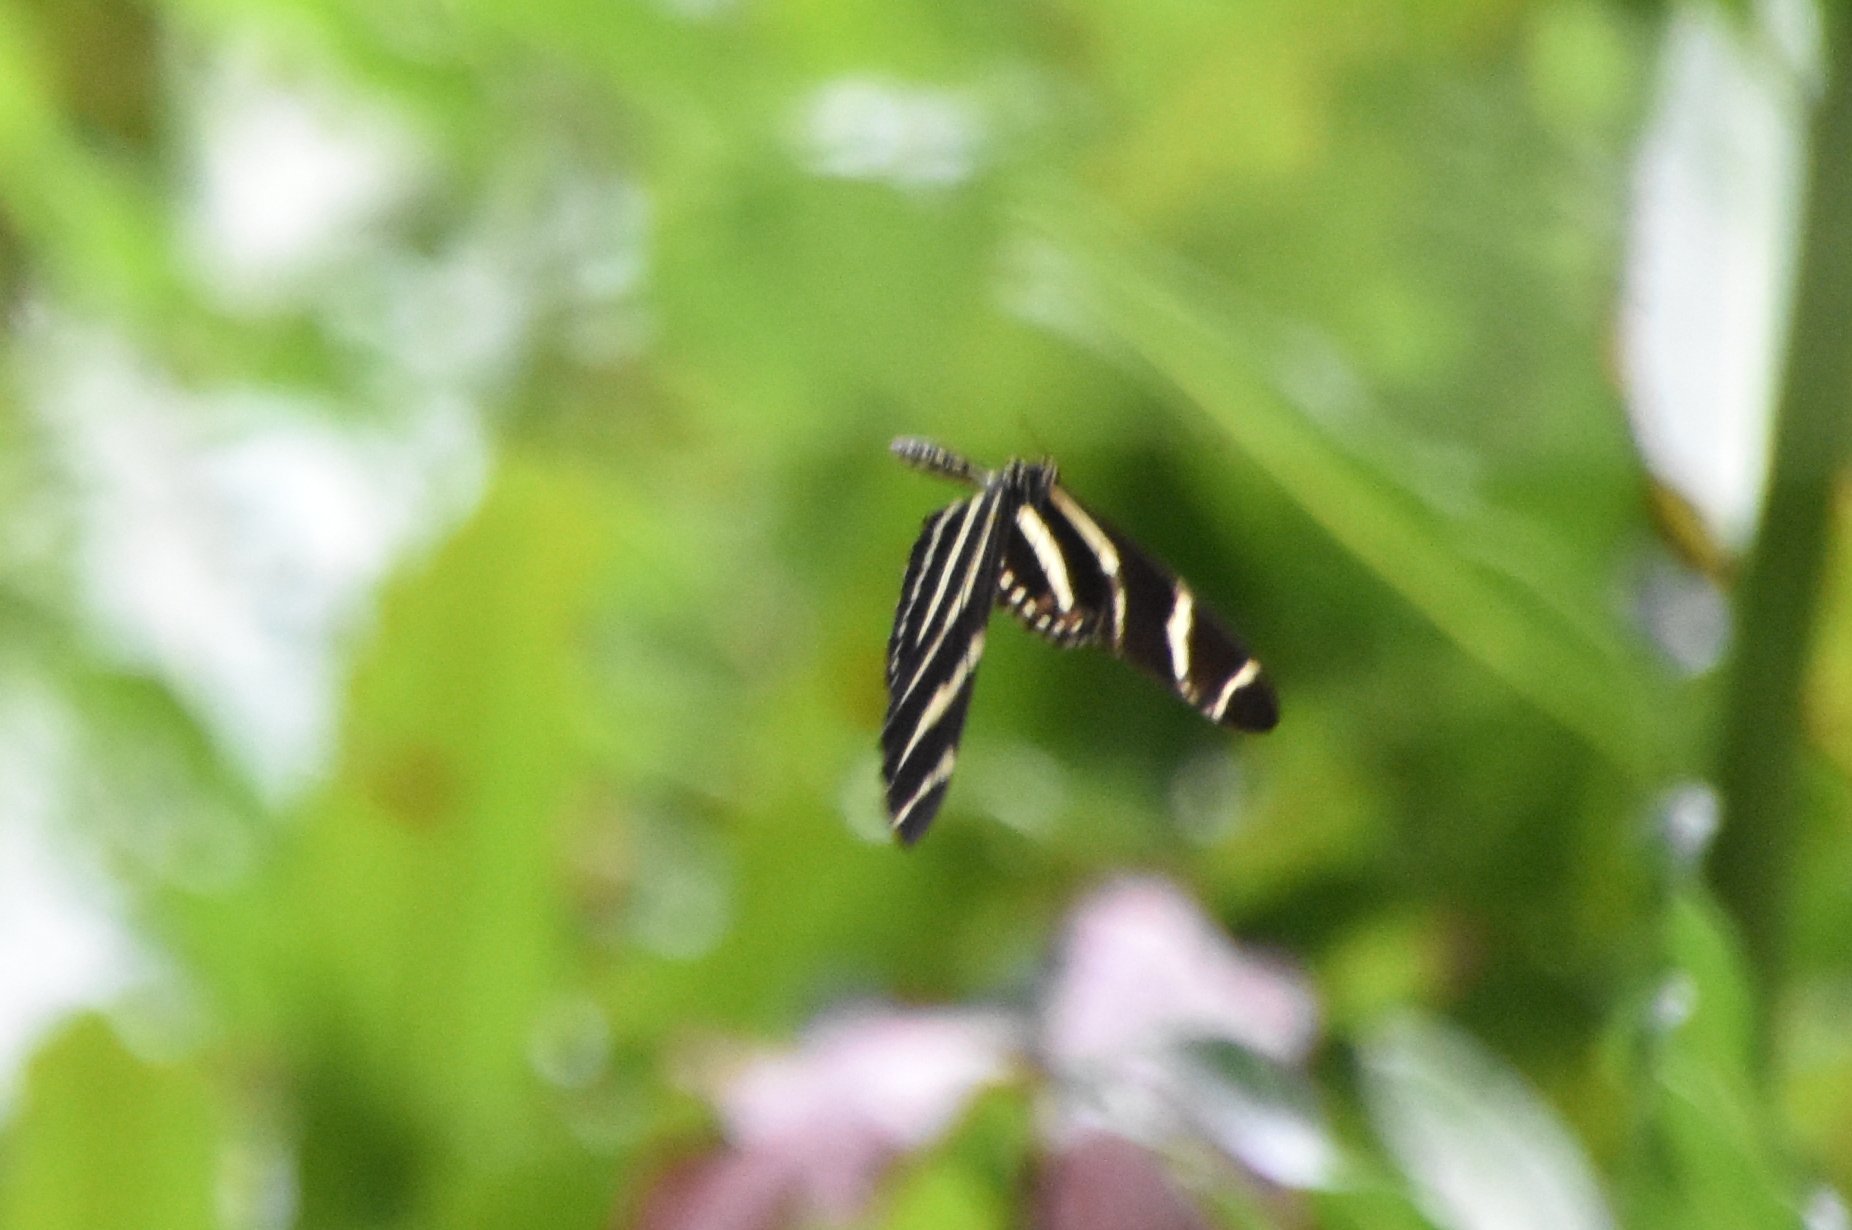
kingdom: Animalia
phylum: Arthropoda
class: Insecta
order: Lepidoptera
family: Nymphalidae
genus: Heliconius
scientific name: Heliconius charithonia
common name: Zebra long wing
